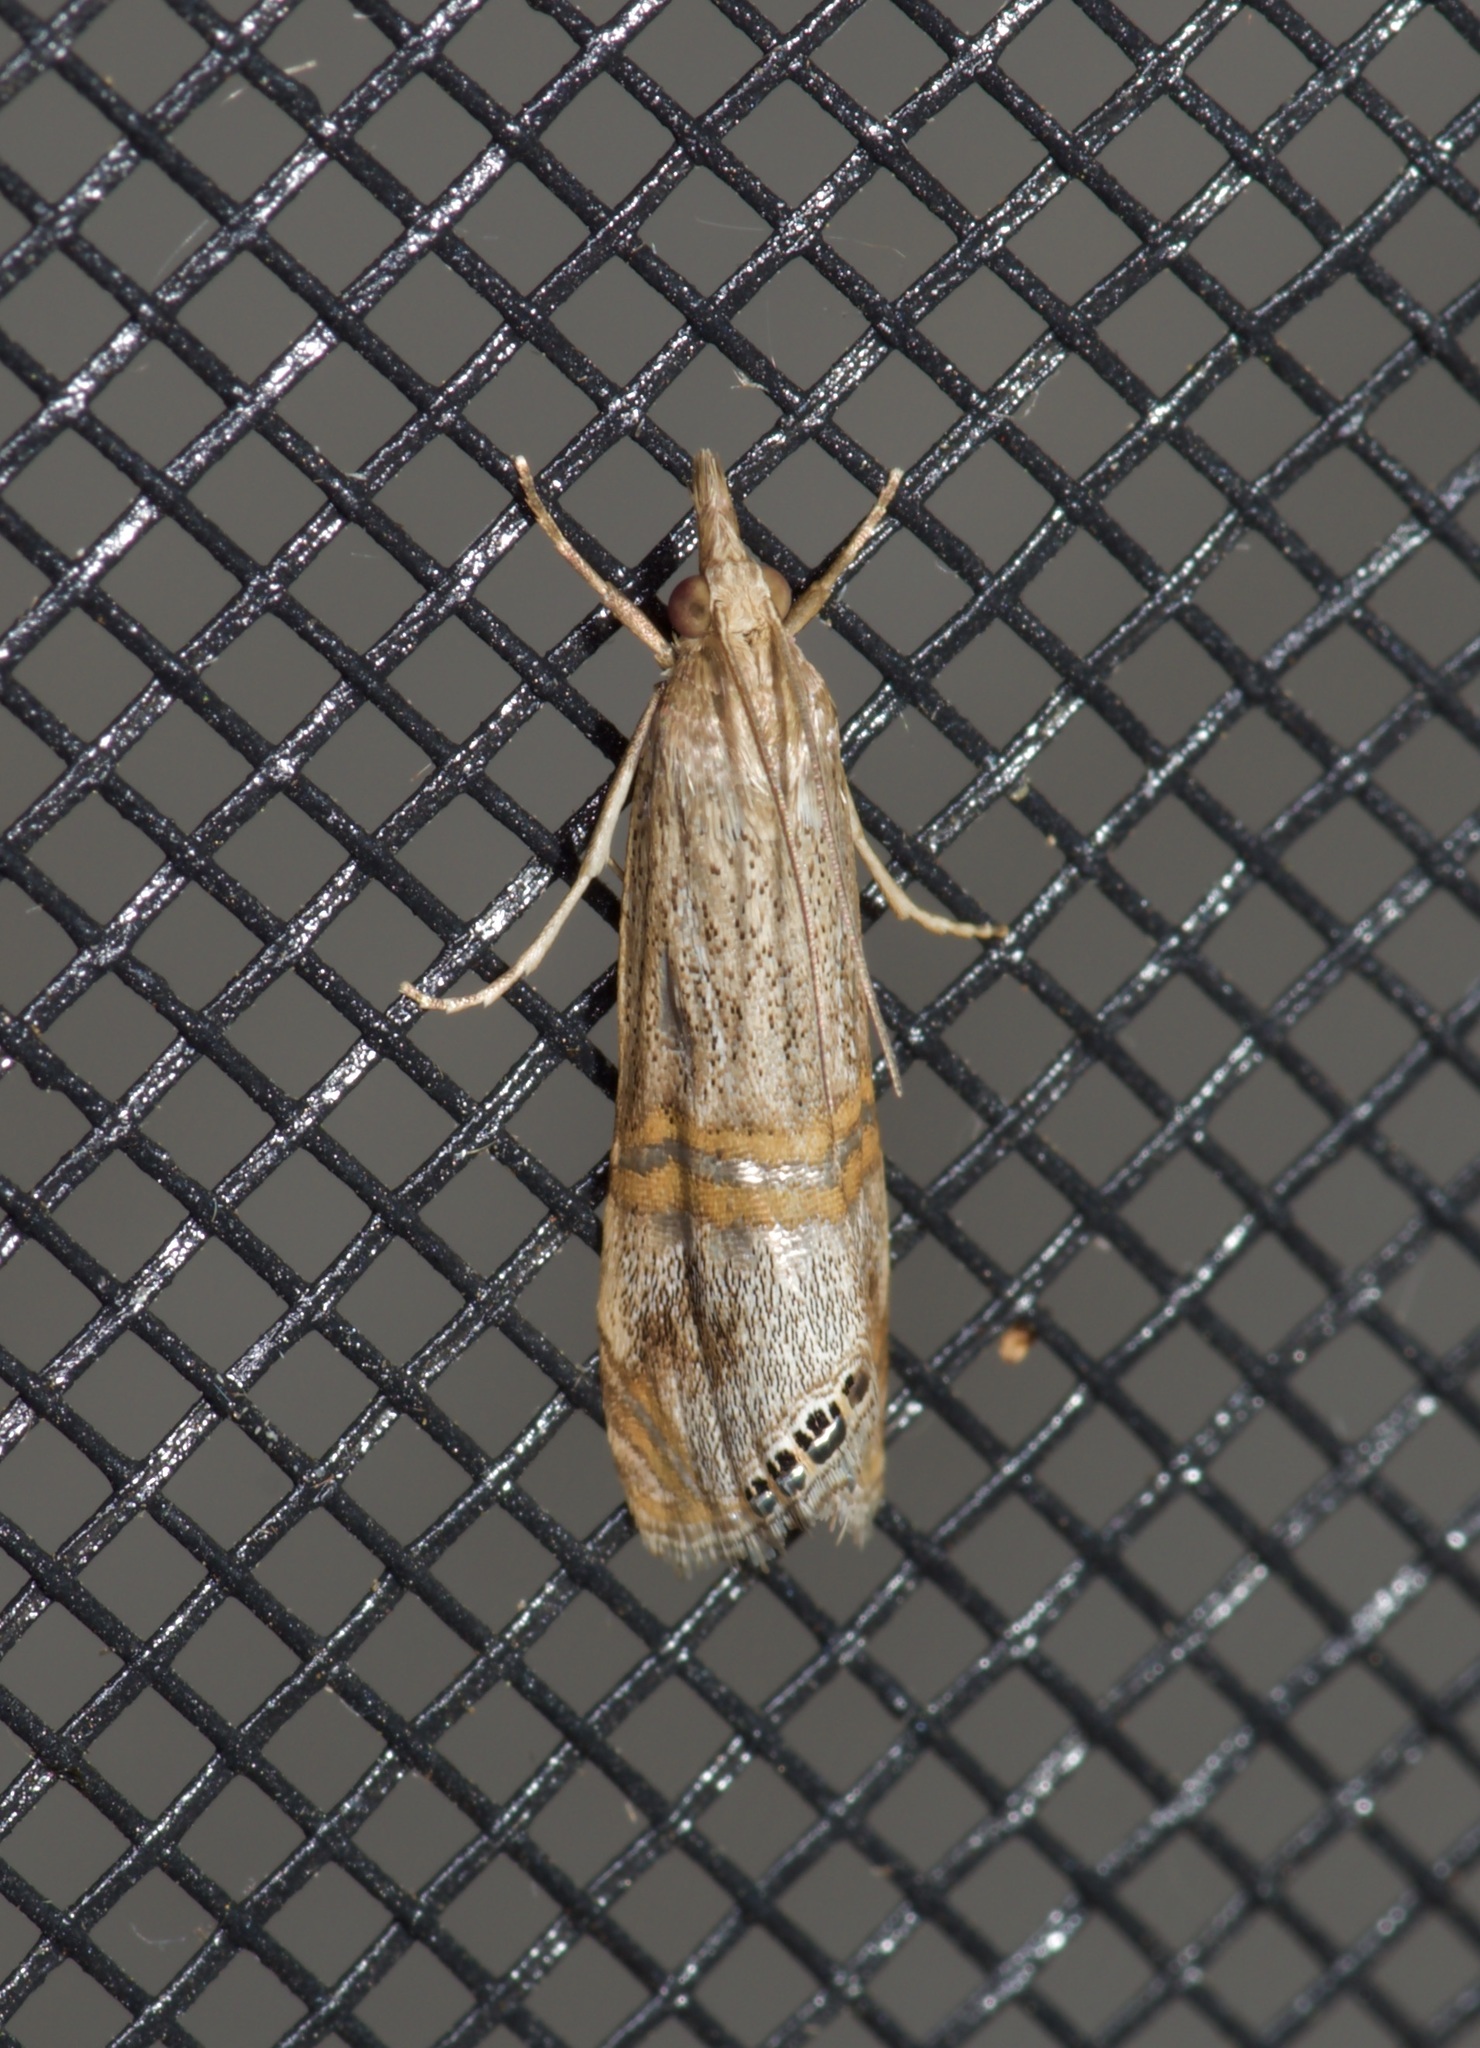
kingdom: Animalia
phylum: Arthropoda
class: Insecta
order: Lepidoptera
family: Crambidae
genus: Euchromius
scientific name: Euchromius ocellea
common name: Necklace veneer moth
